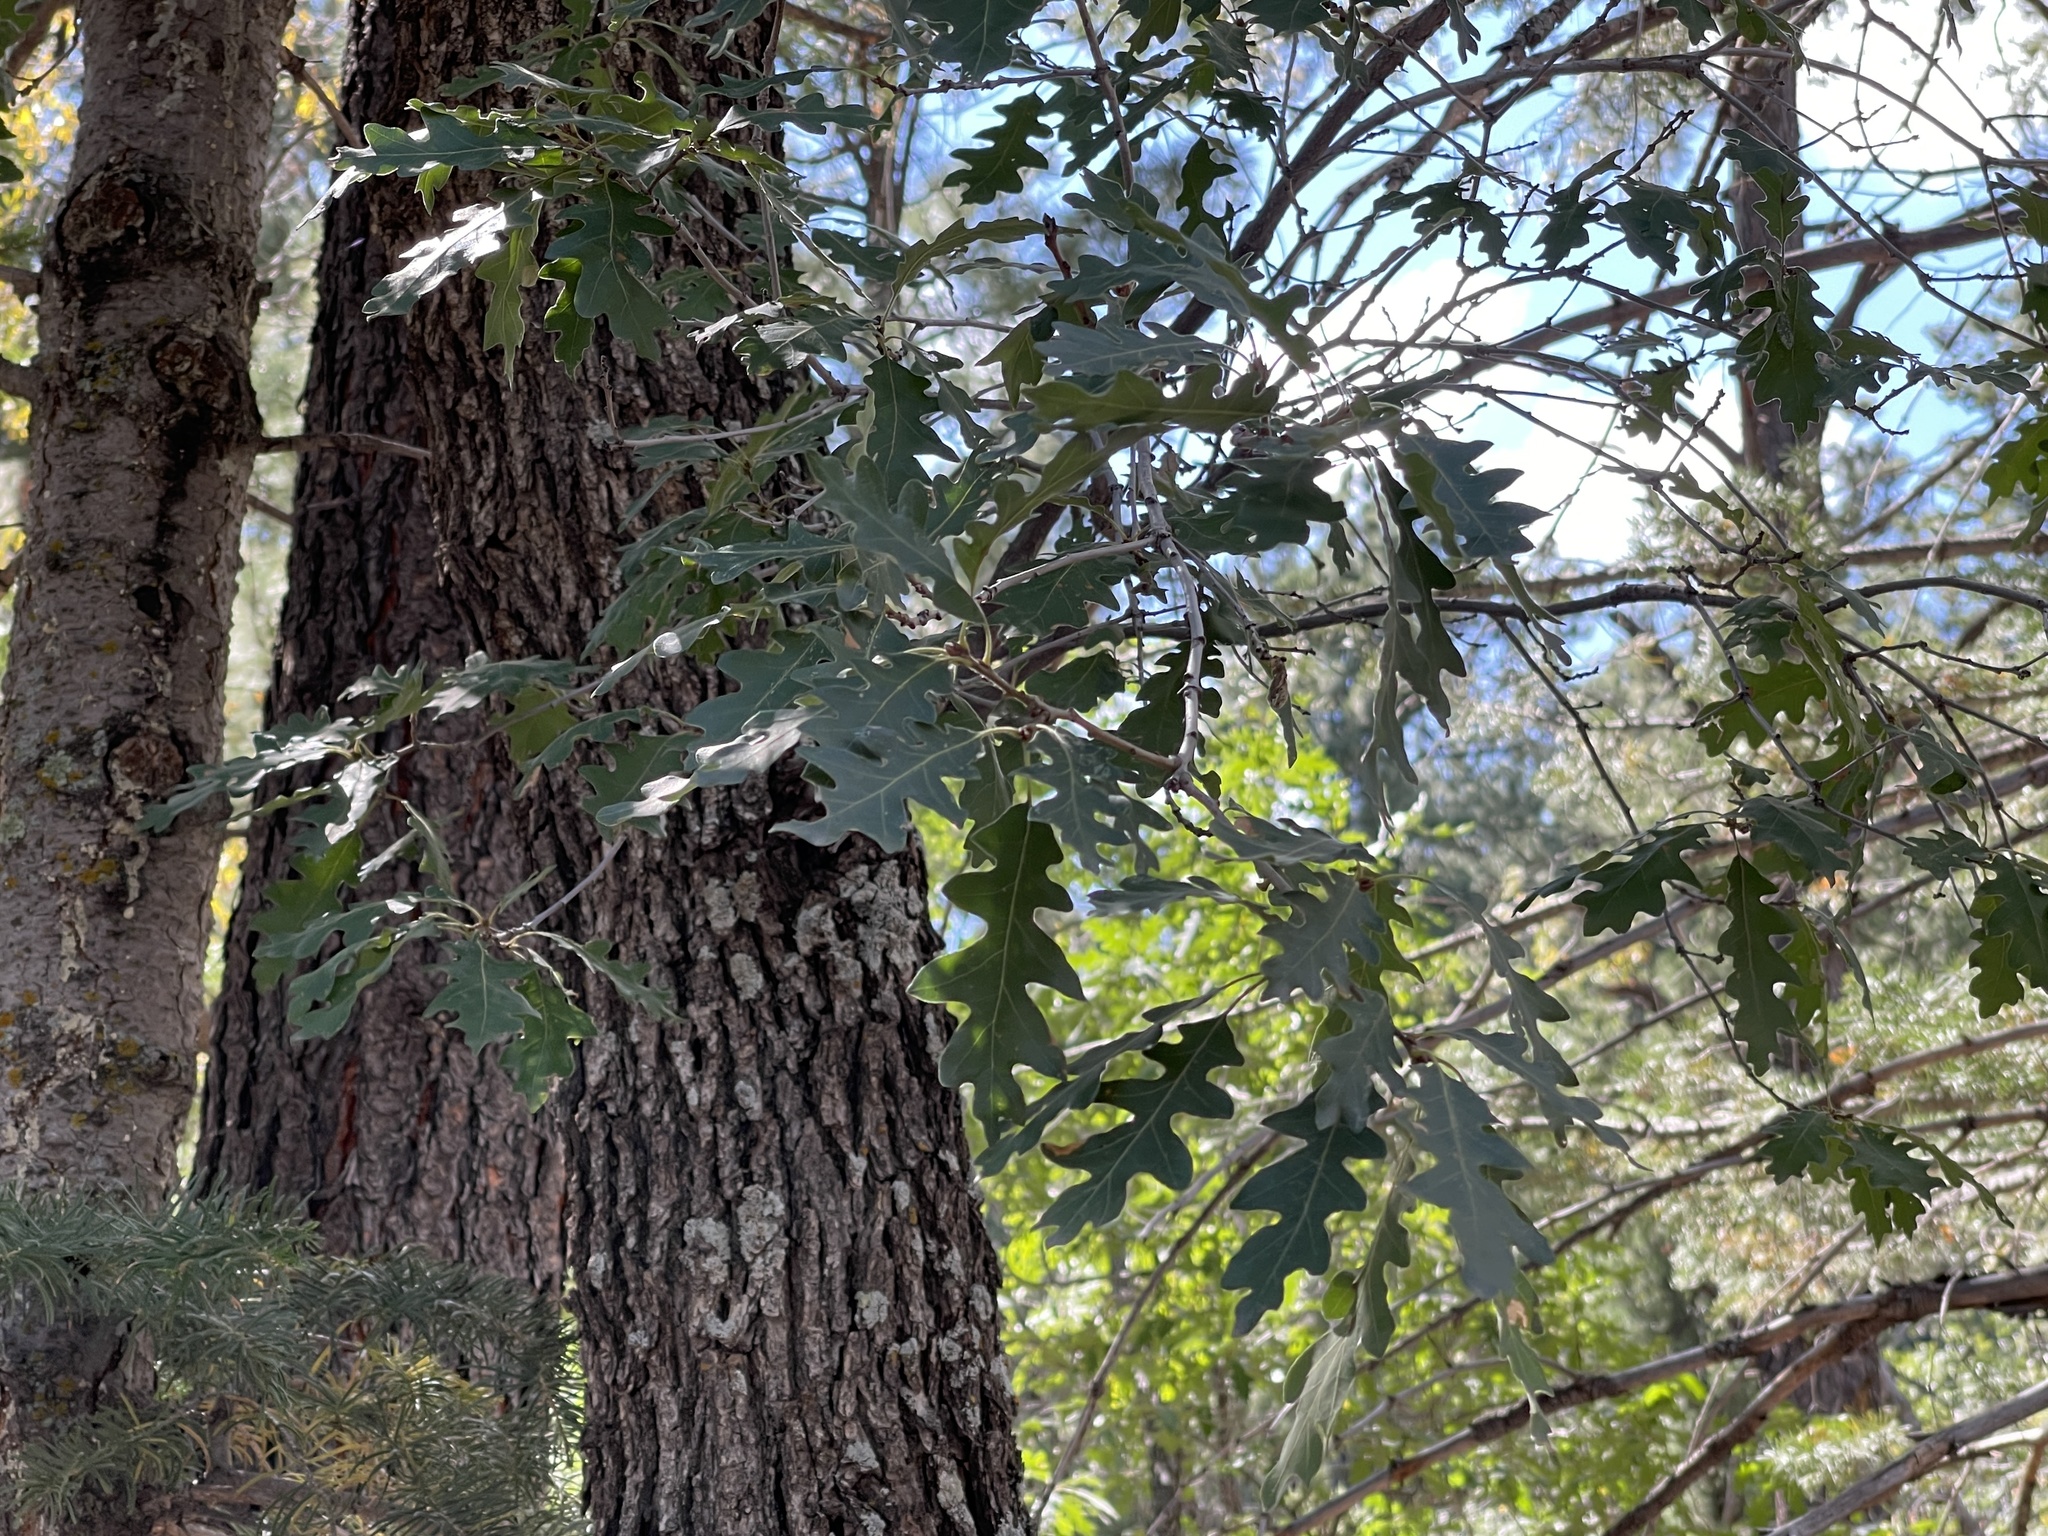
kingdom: Plantae
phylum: Tracheophyta
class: Magnoliopsida
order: Fagales
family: Fagaceae
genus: Quercus
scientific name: Quercus gambelii
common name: Gambel oak
